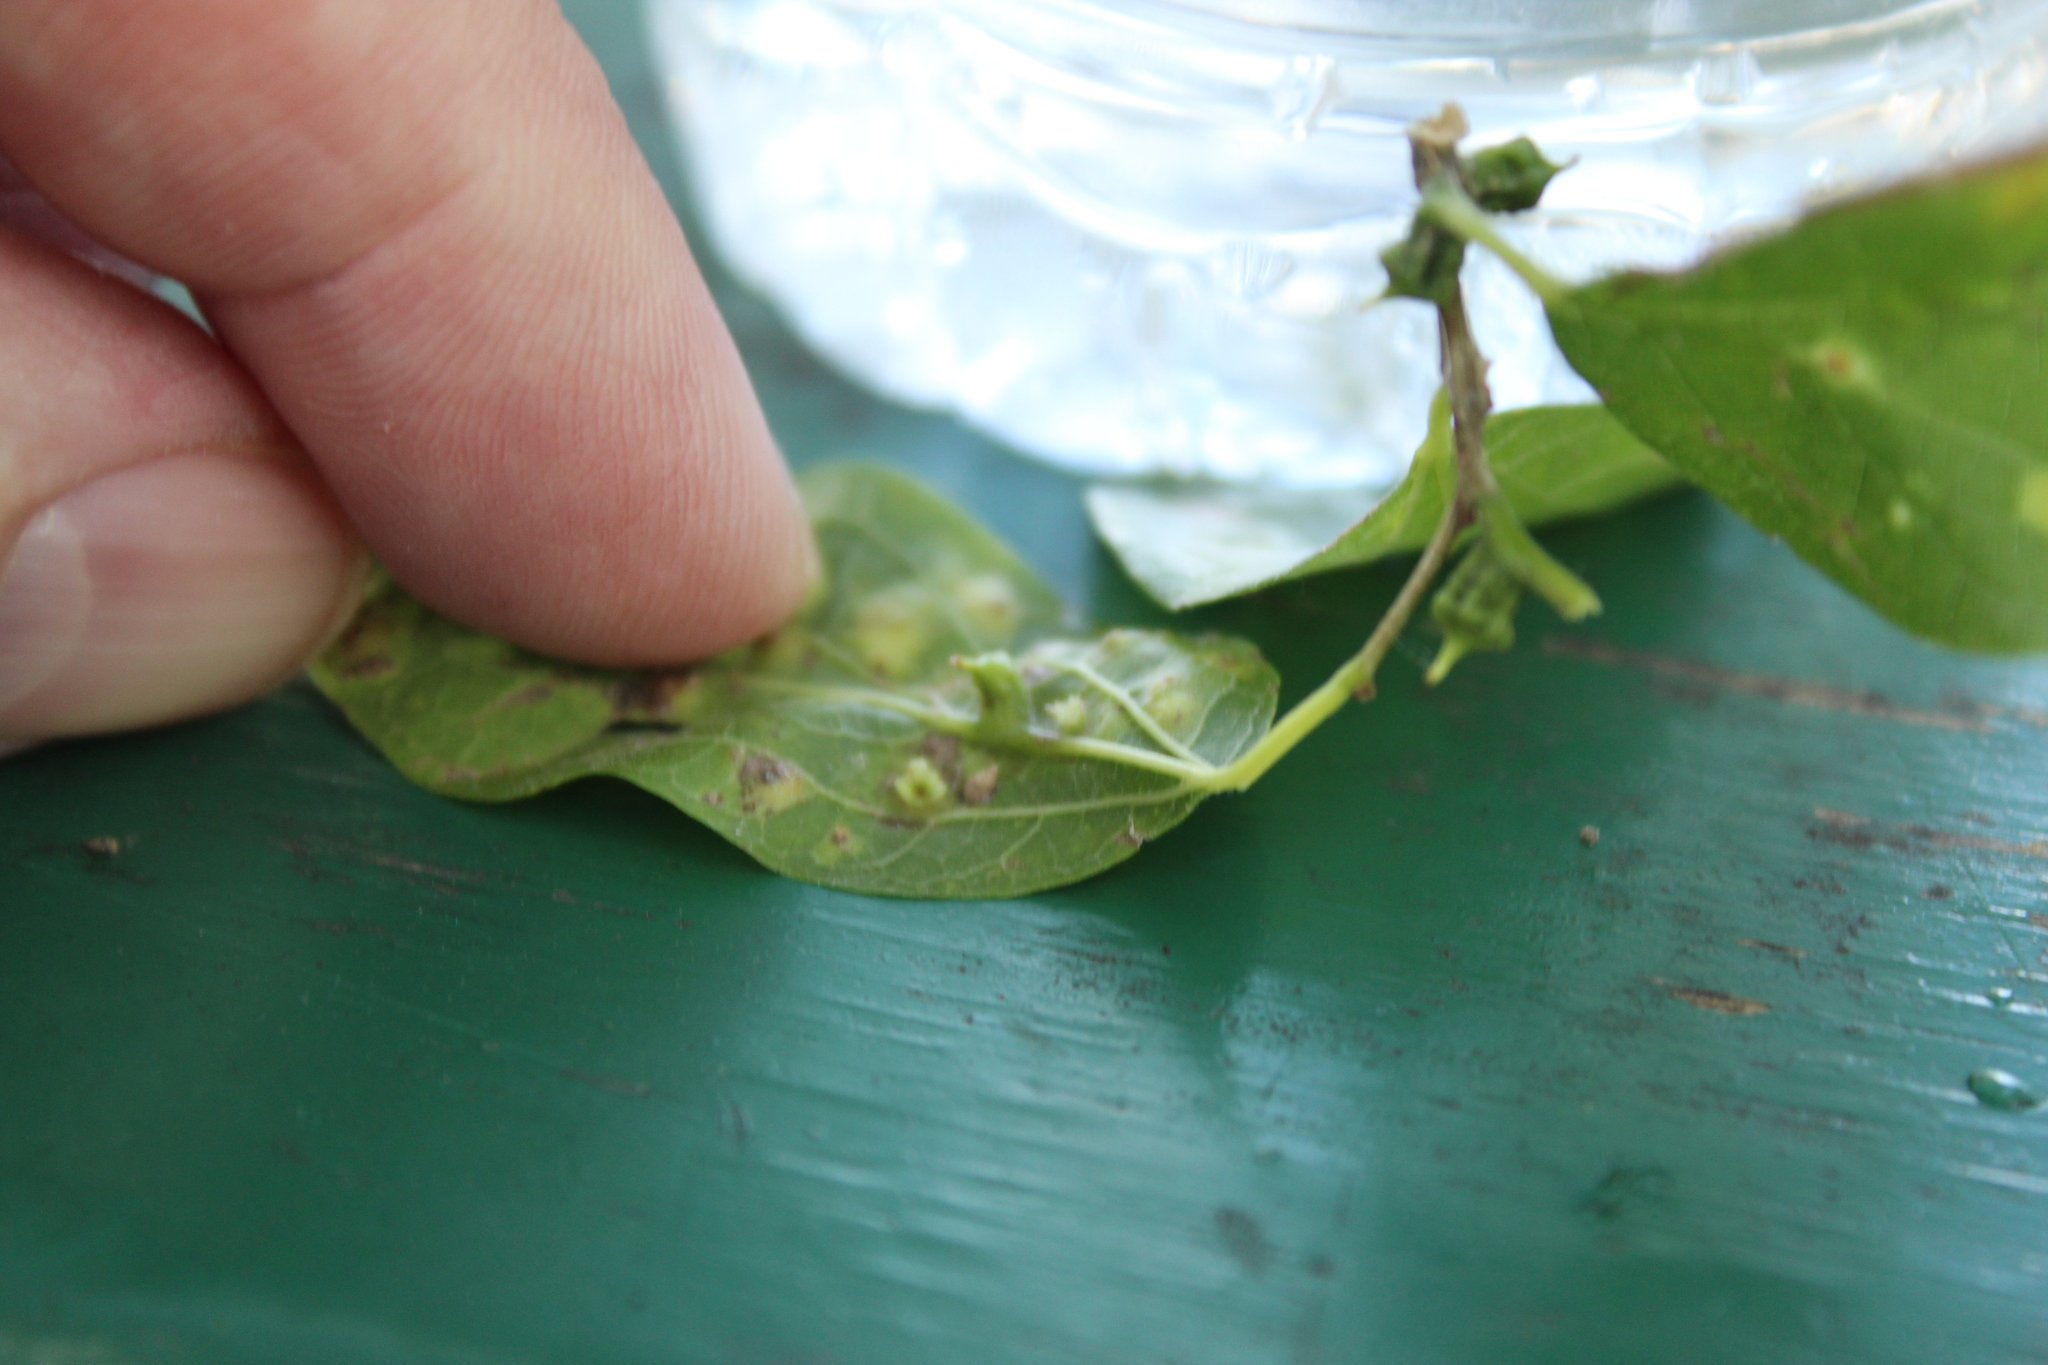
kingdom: Animalia
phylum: Arthropoda
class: Insecta
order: Diptera
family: Cecidomyiidae
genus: Celticecis
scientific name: Celticecis ramicola
